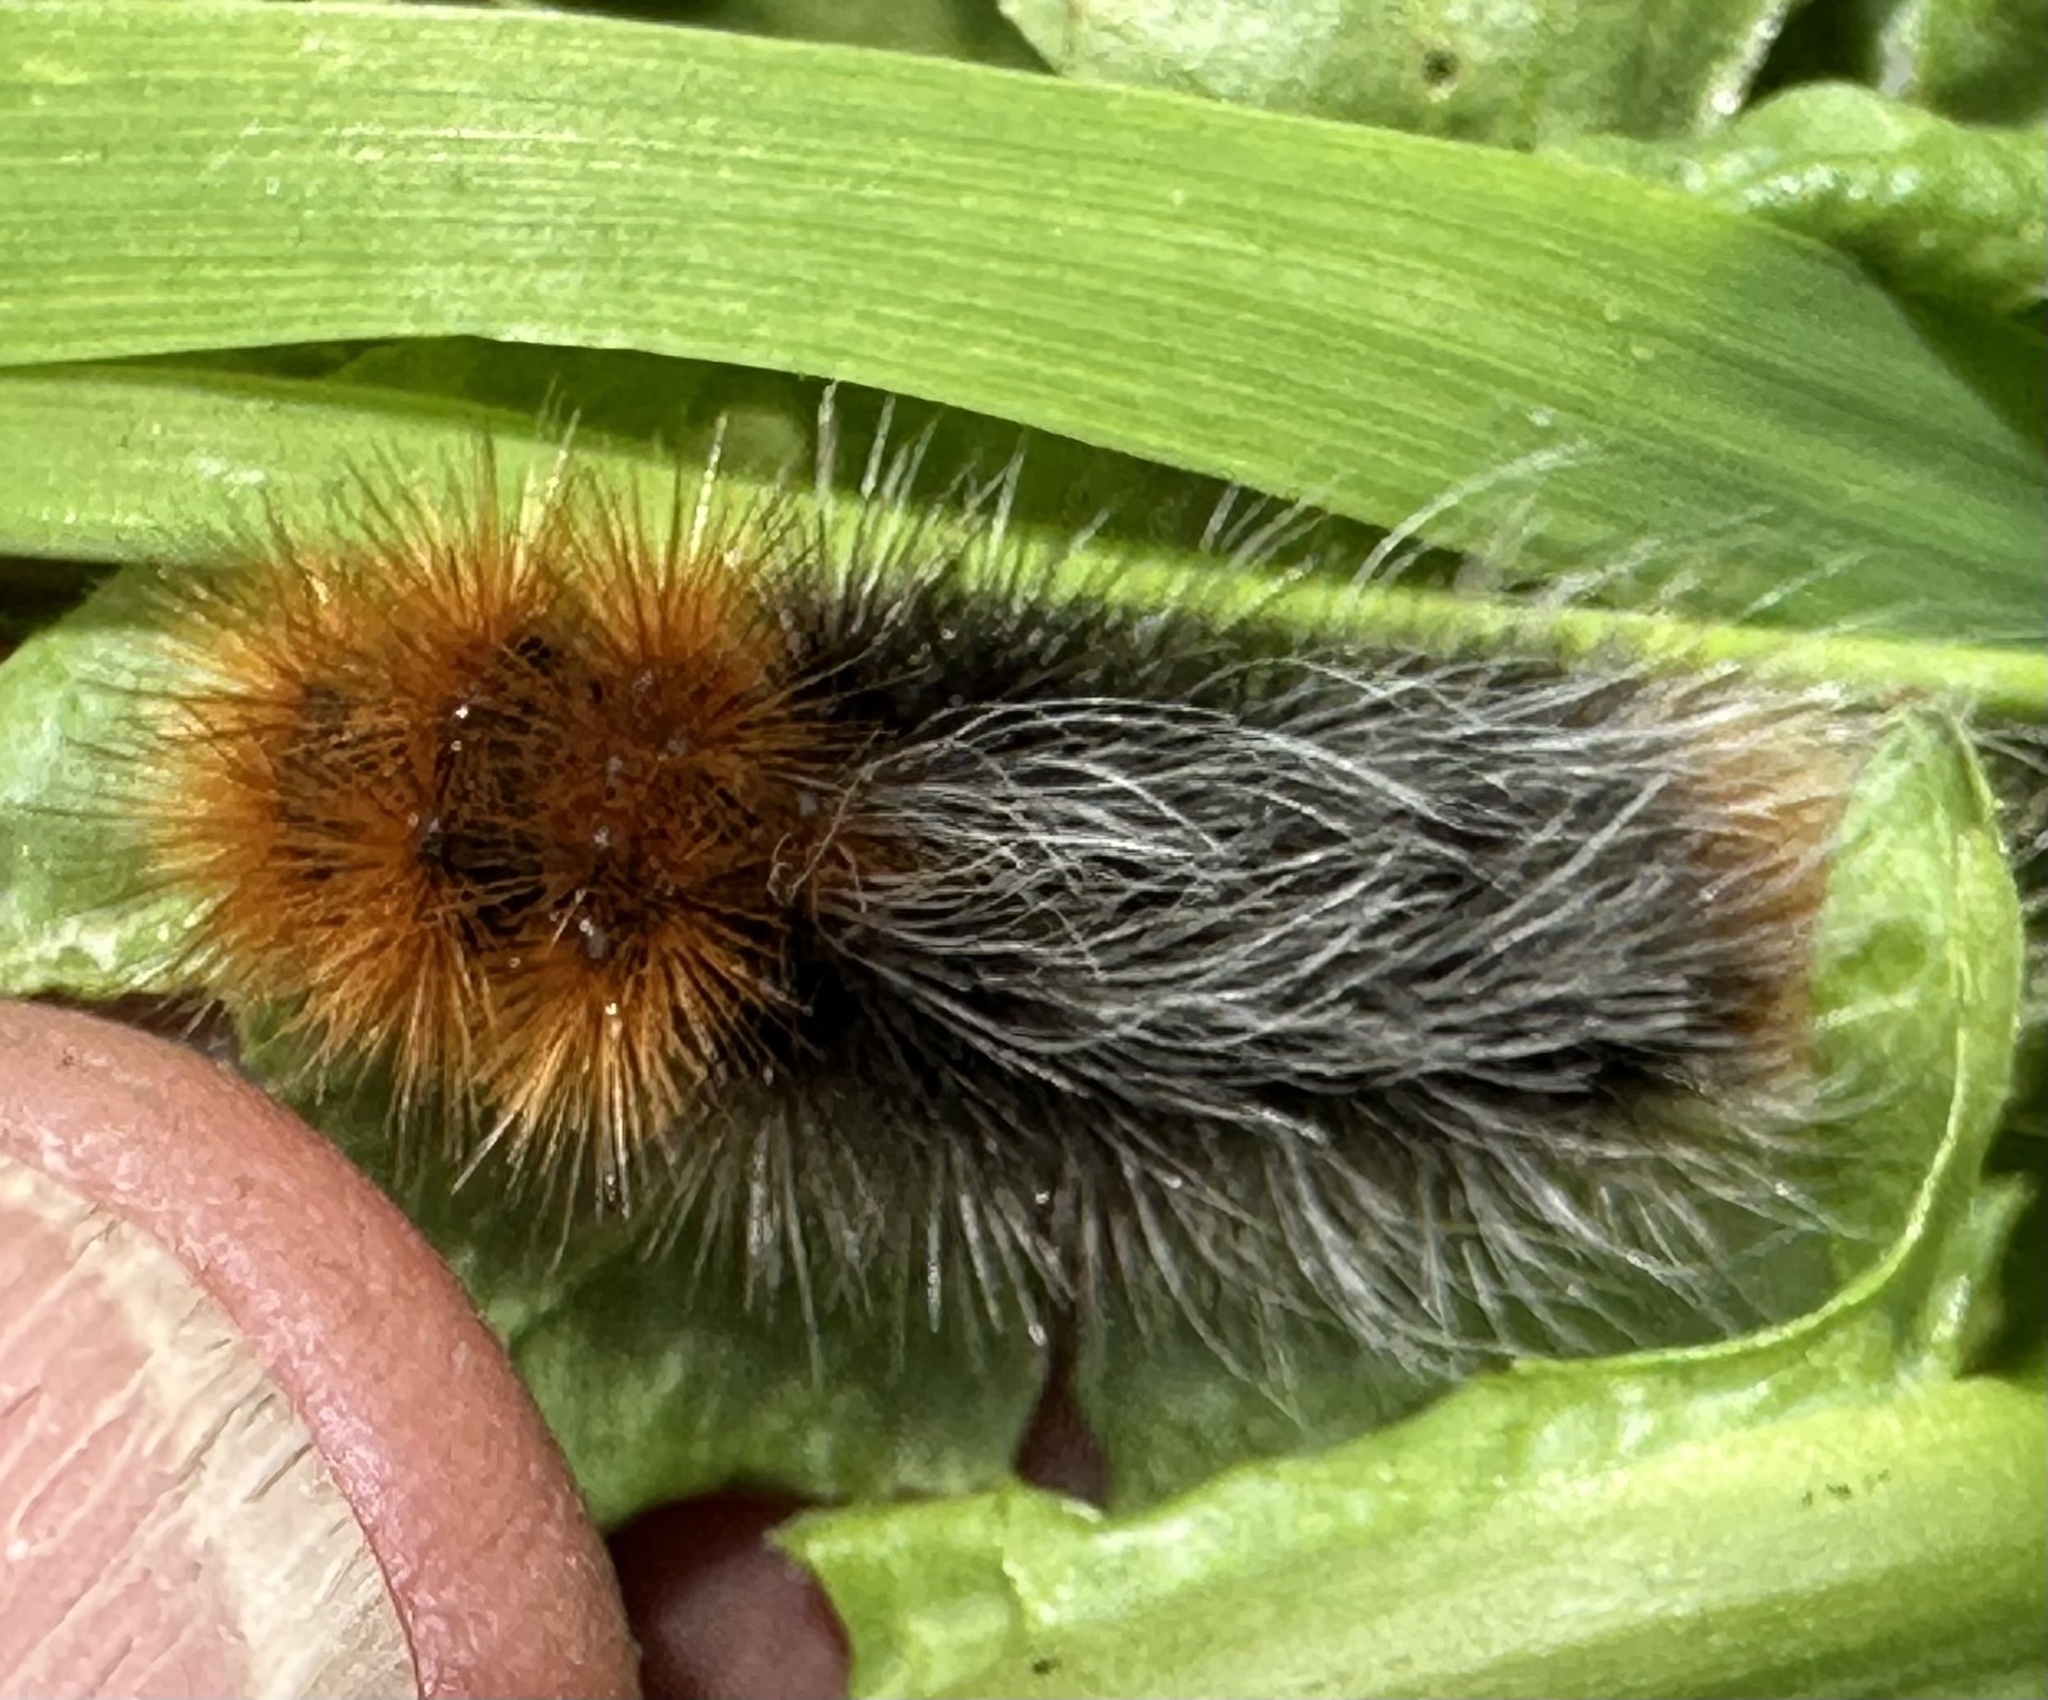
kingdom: Animalia
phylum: Arthropoda
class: Insecta
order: Lepidoptera
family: Erebidae
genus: Arctia
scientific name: Arctia tigrina
